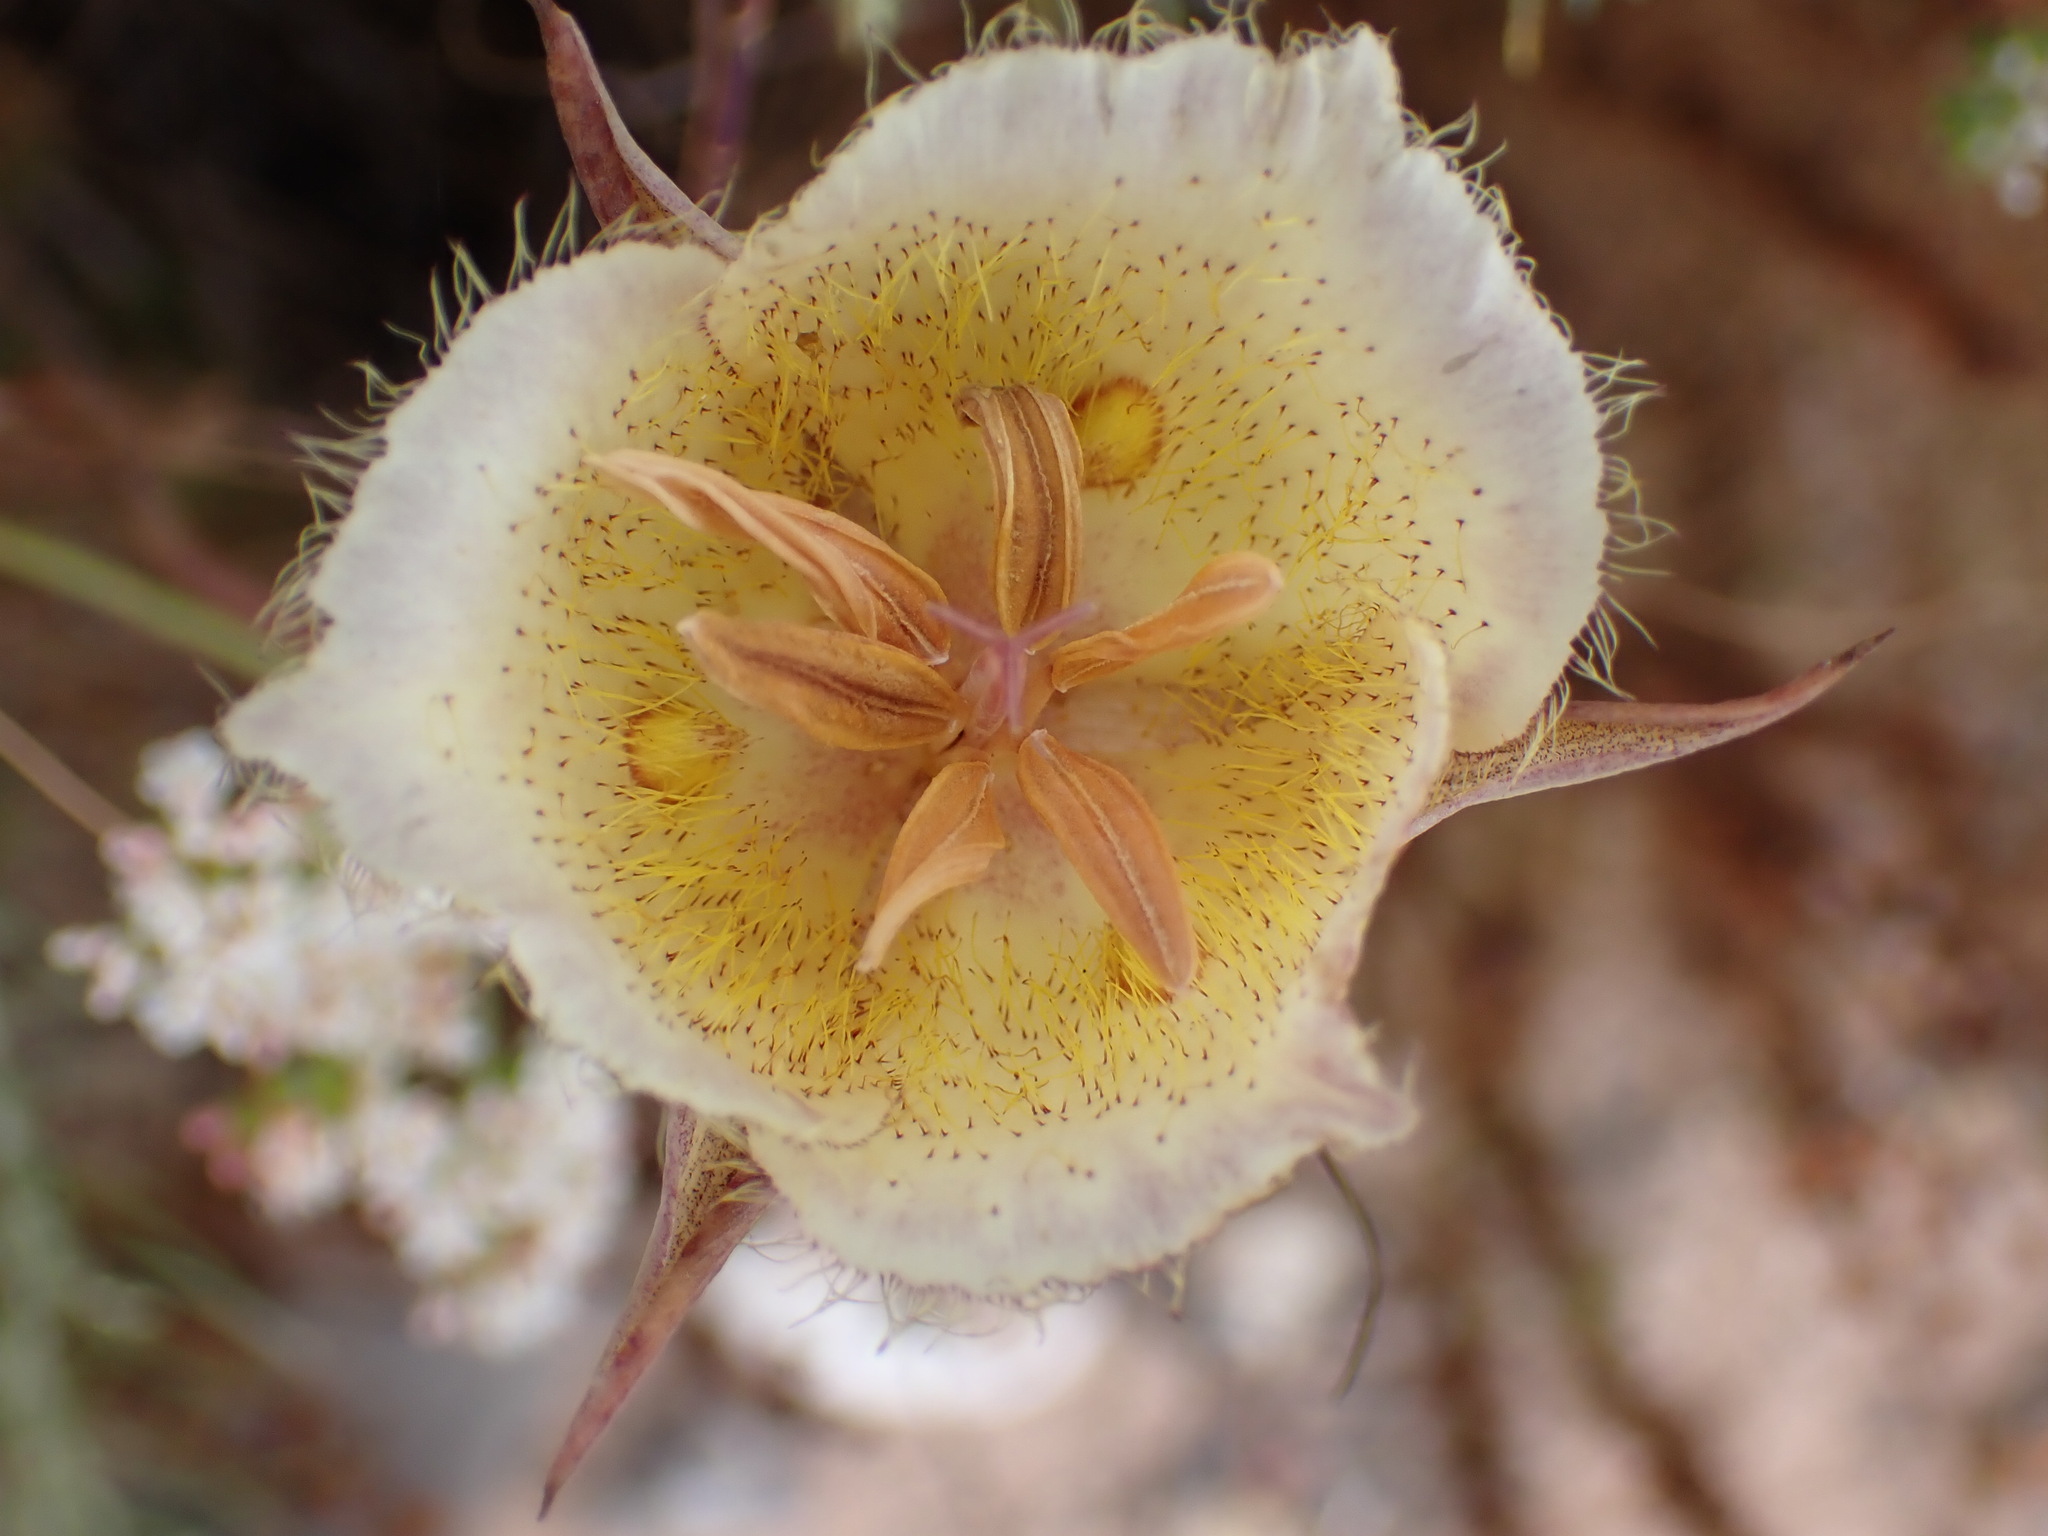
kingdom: Plantae
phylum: Tracheophyta
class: Liliopsida
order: Liliales
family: Liliaceae
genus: Calochortus
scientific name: Calochortus weedii
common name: Weed's mariposa-lily
